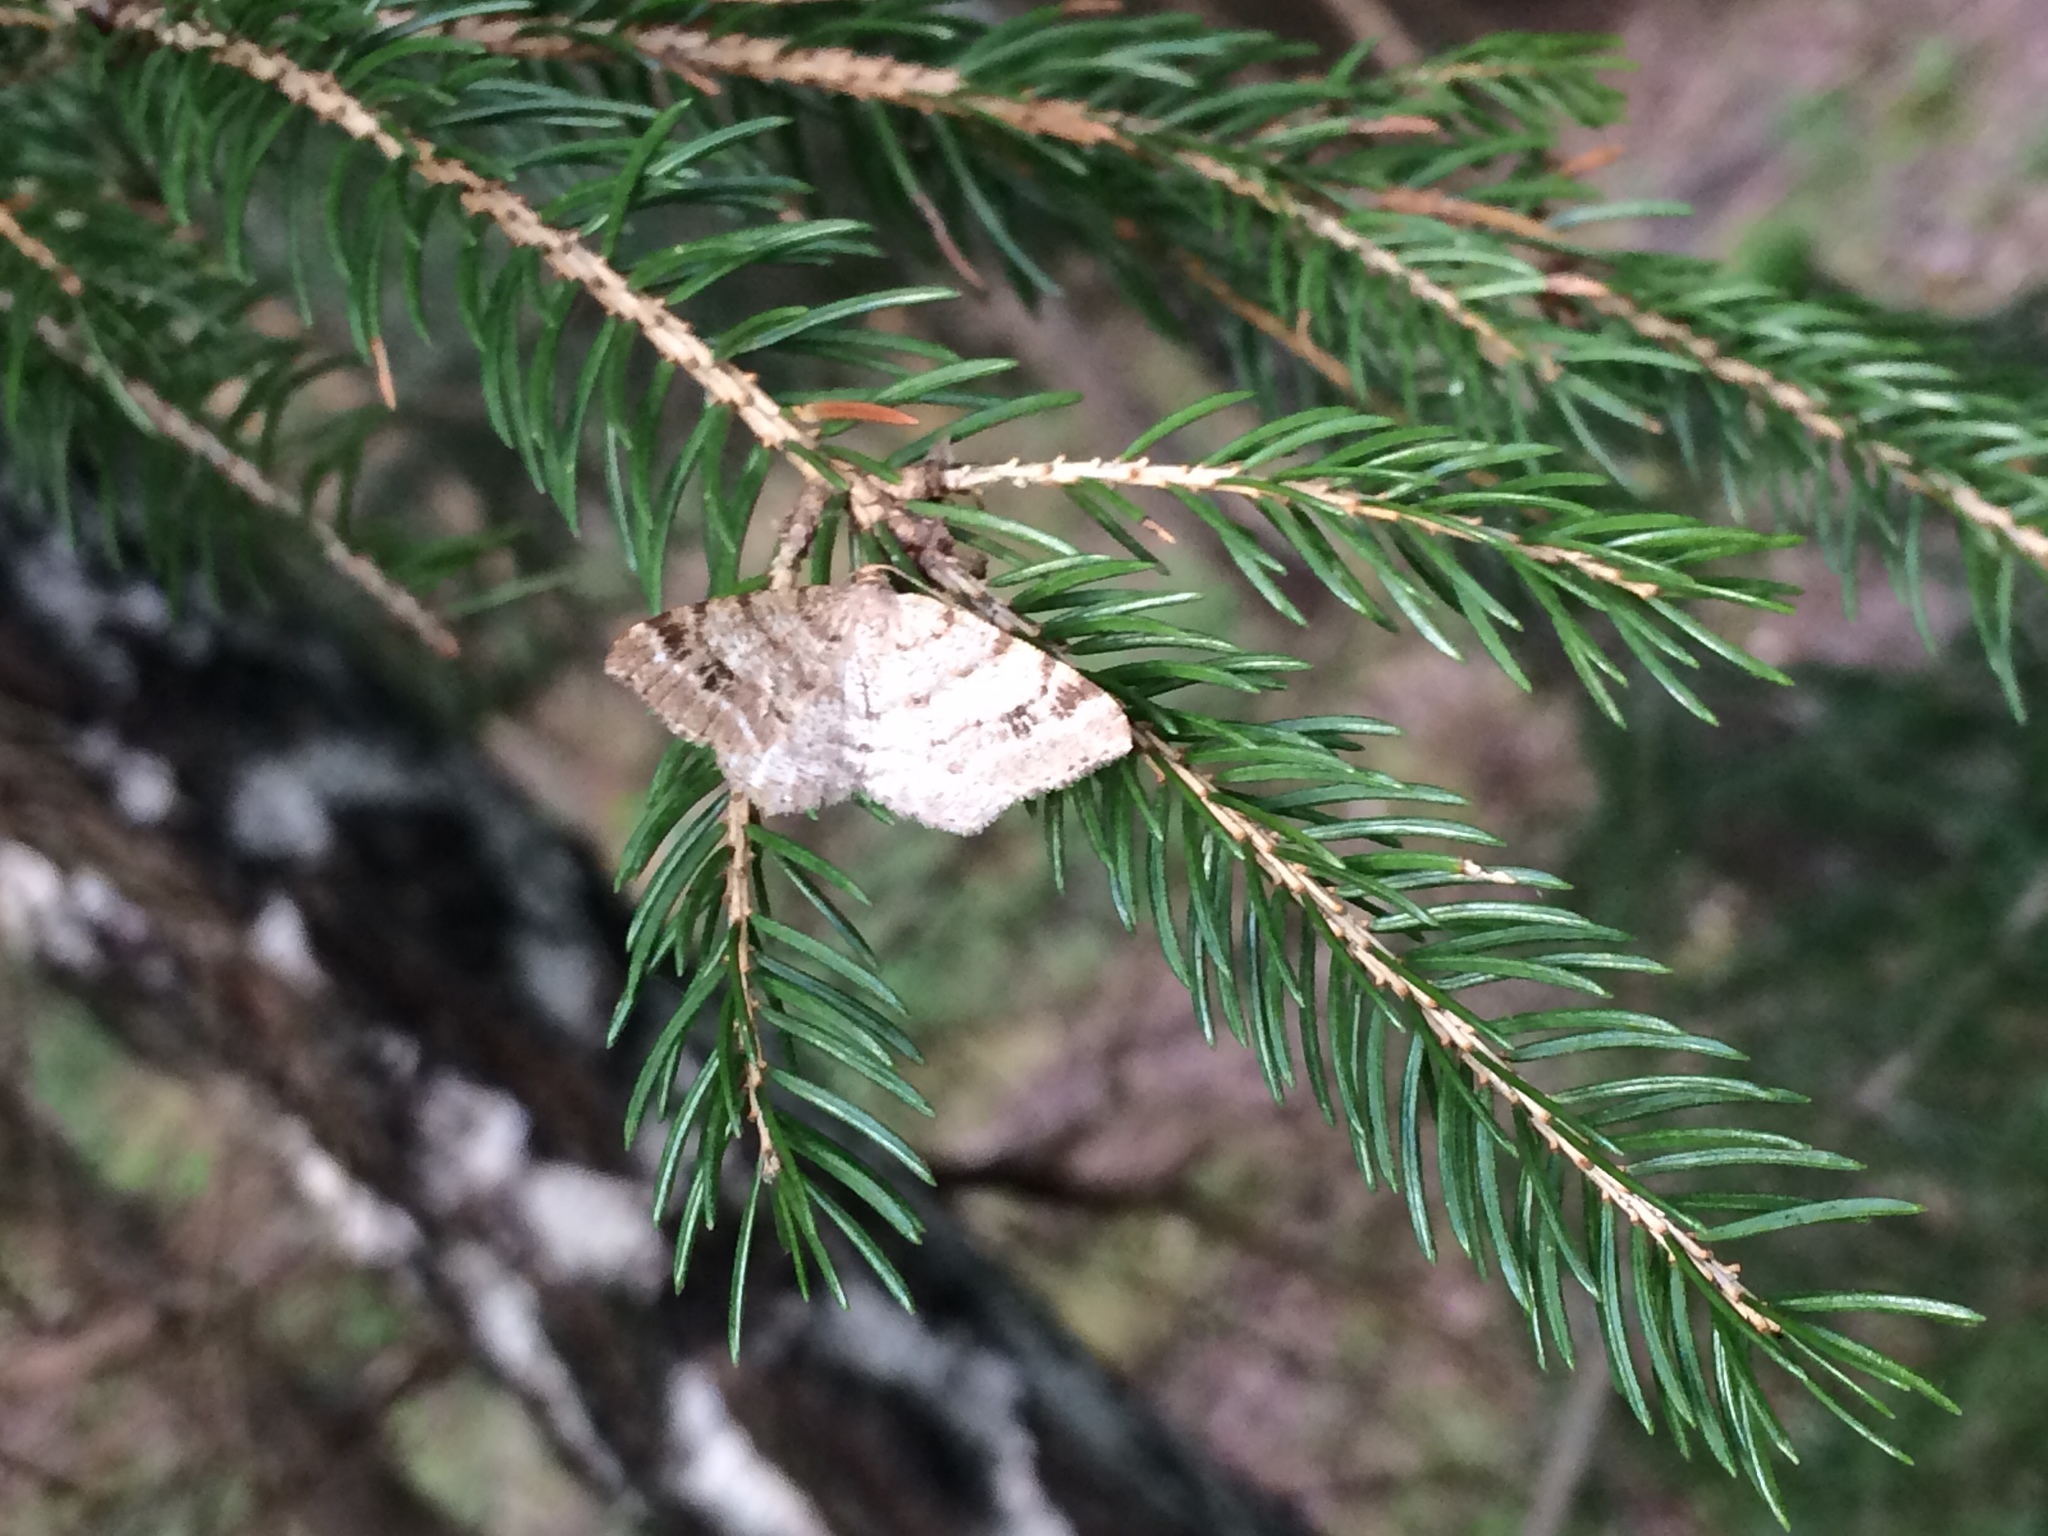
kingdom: Animalia
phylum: Arthropoda
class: Insecta
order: Lepidoptera
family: Geometridae
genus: Macaria
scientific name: Macaria signaria
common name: Dusky peacock
